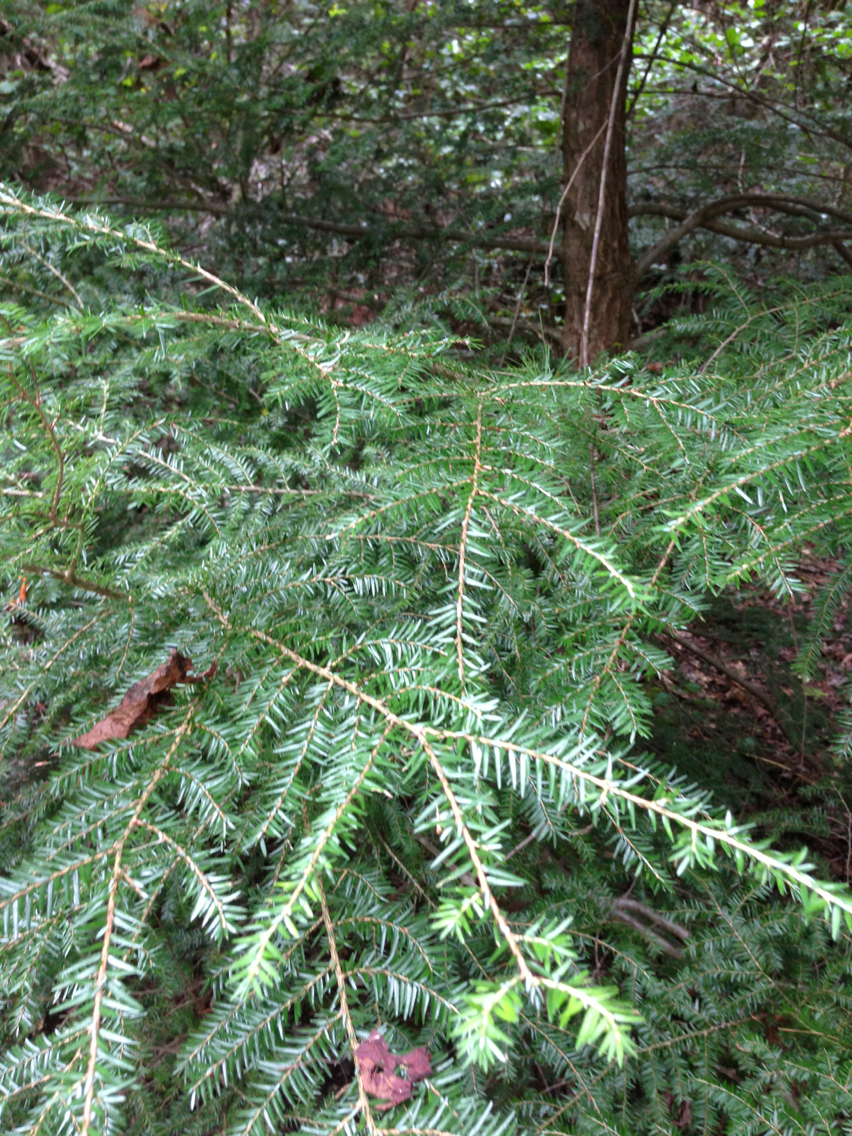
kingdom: Plantae
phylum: Tracheophyta
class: Pinopsida
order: Pinales
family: Pinaceae
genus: Tsuga
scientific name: Tsuga canadensis
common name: Eastern hemlock
